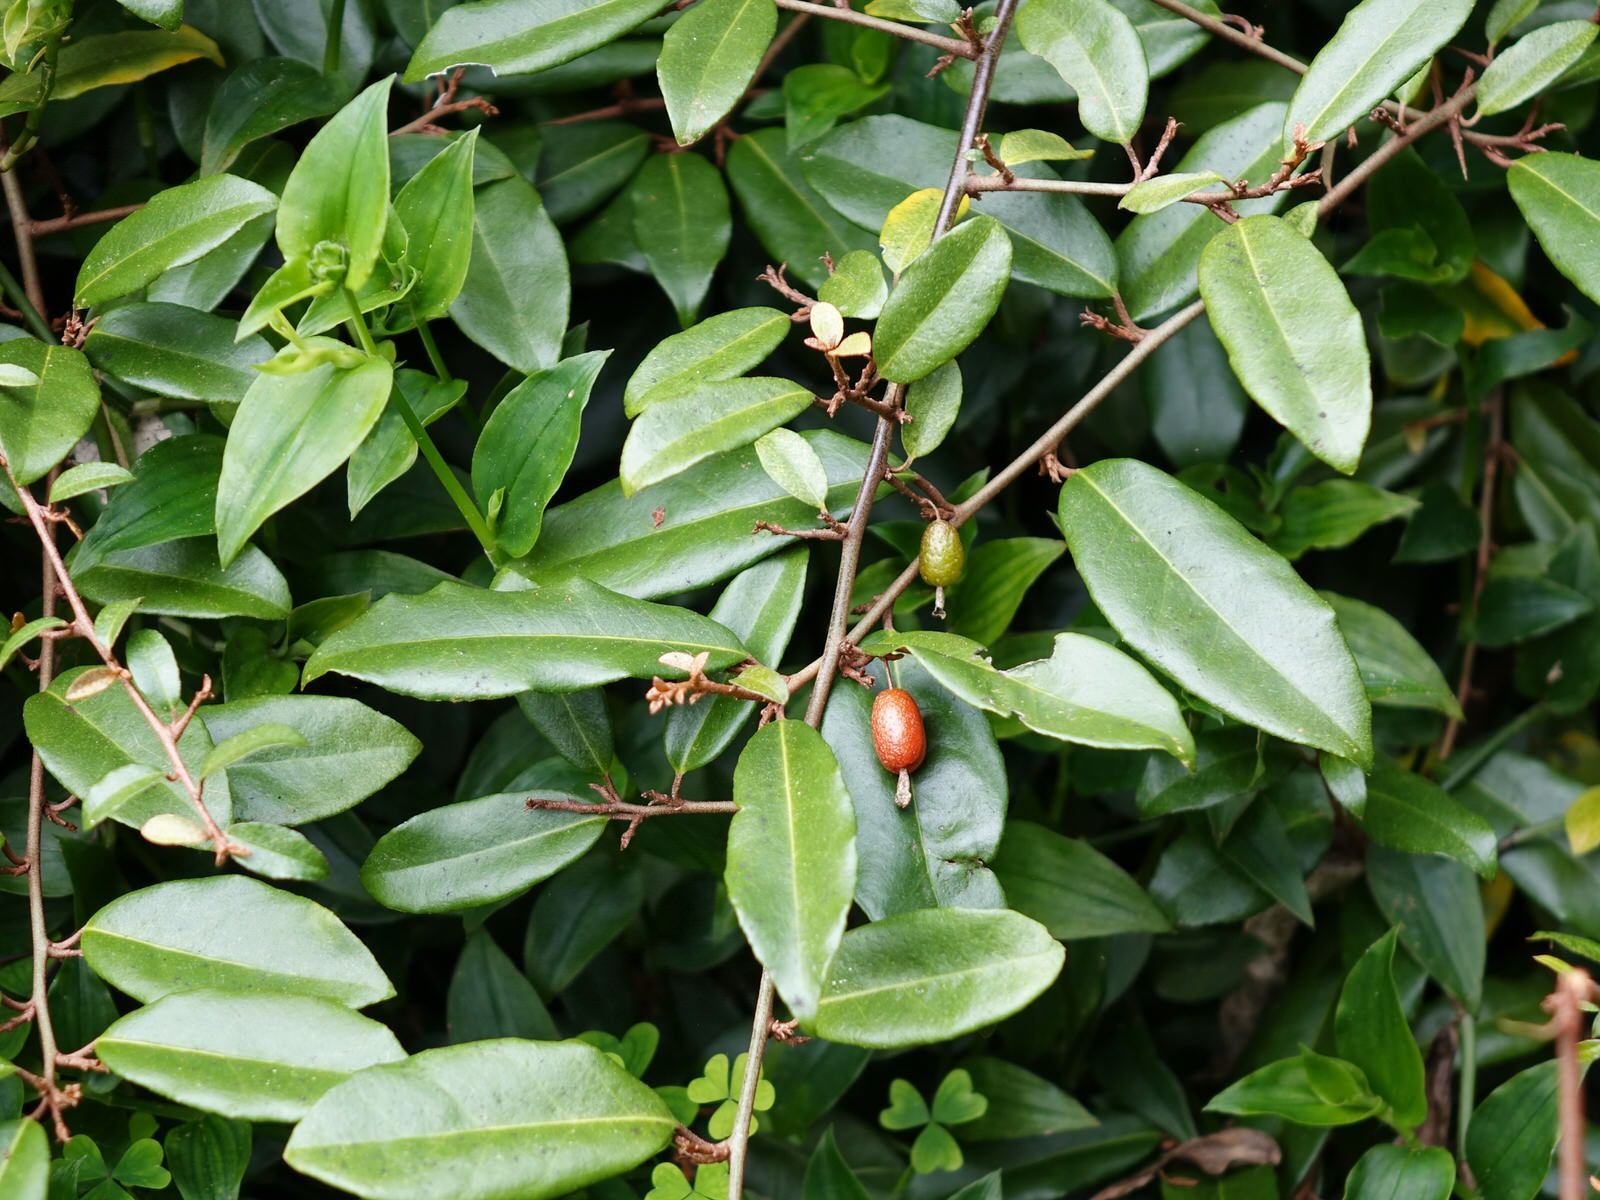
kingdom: Plantae
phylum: Tracheophyta
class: Magnoliopsida
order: Rosales
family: Elaeagnaceae
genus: Elaeagnus
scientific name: Elaeagnus reflexa
